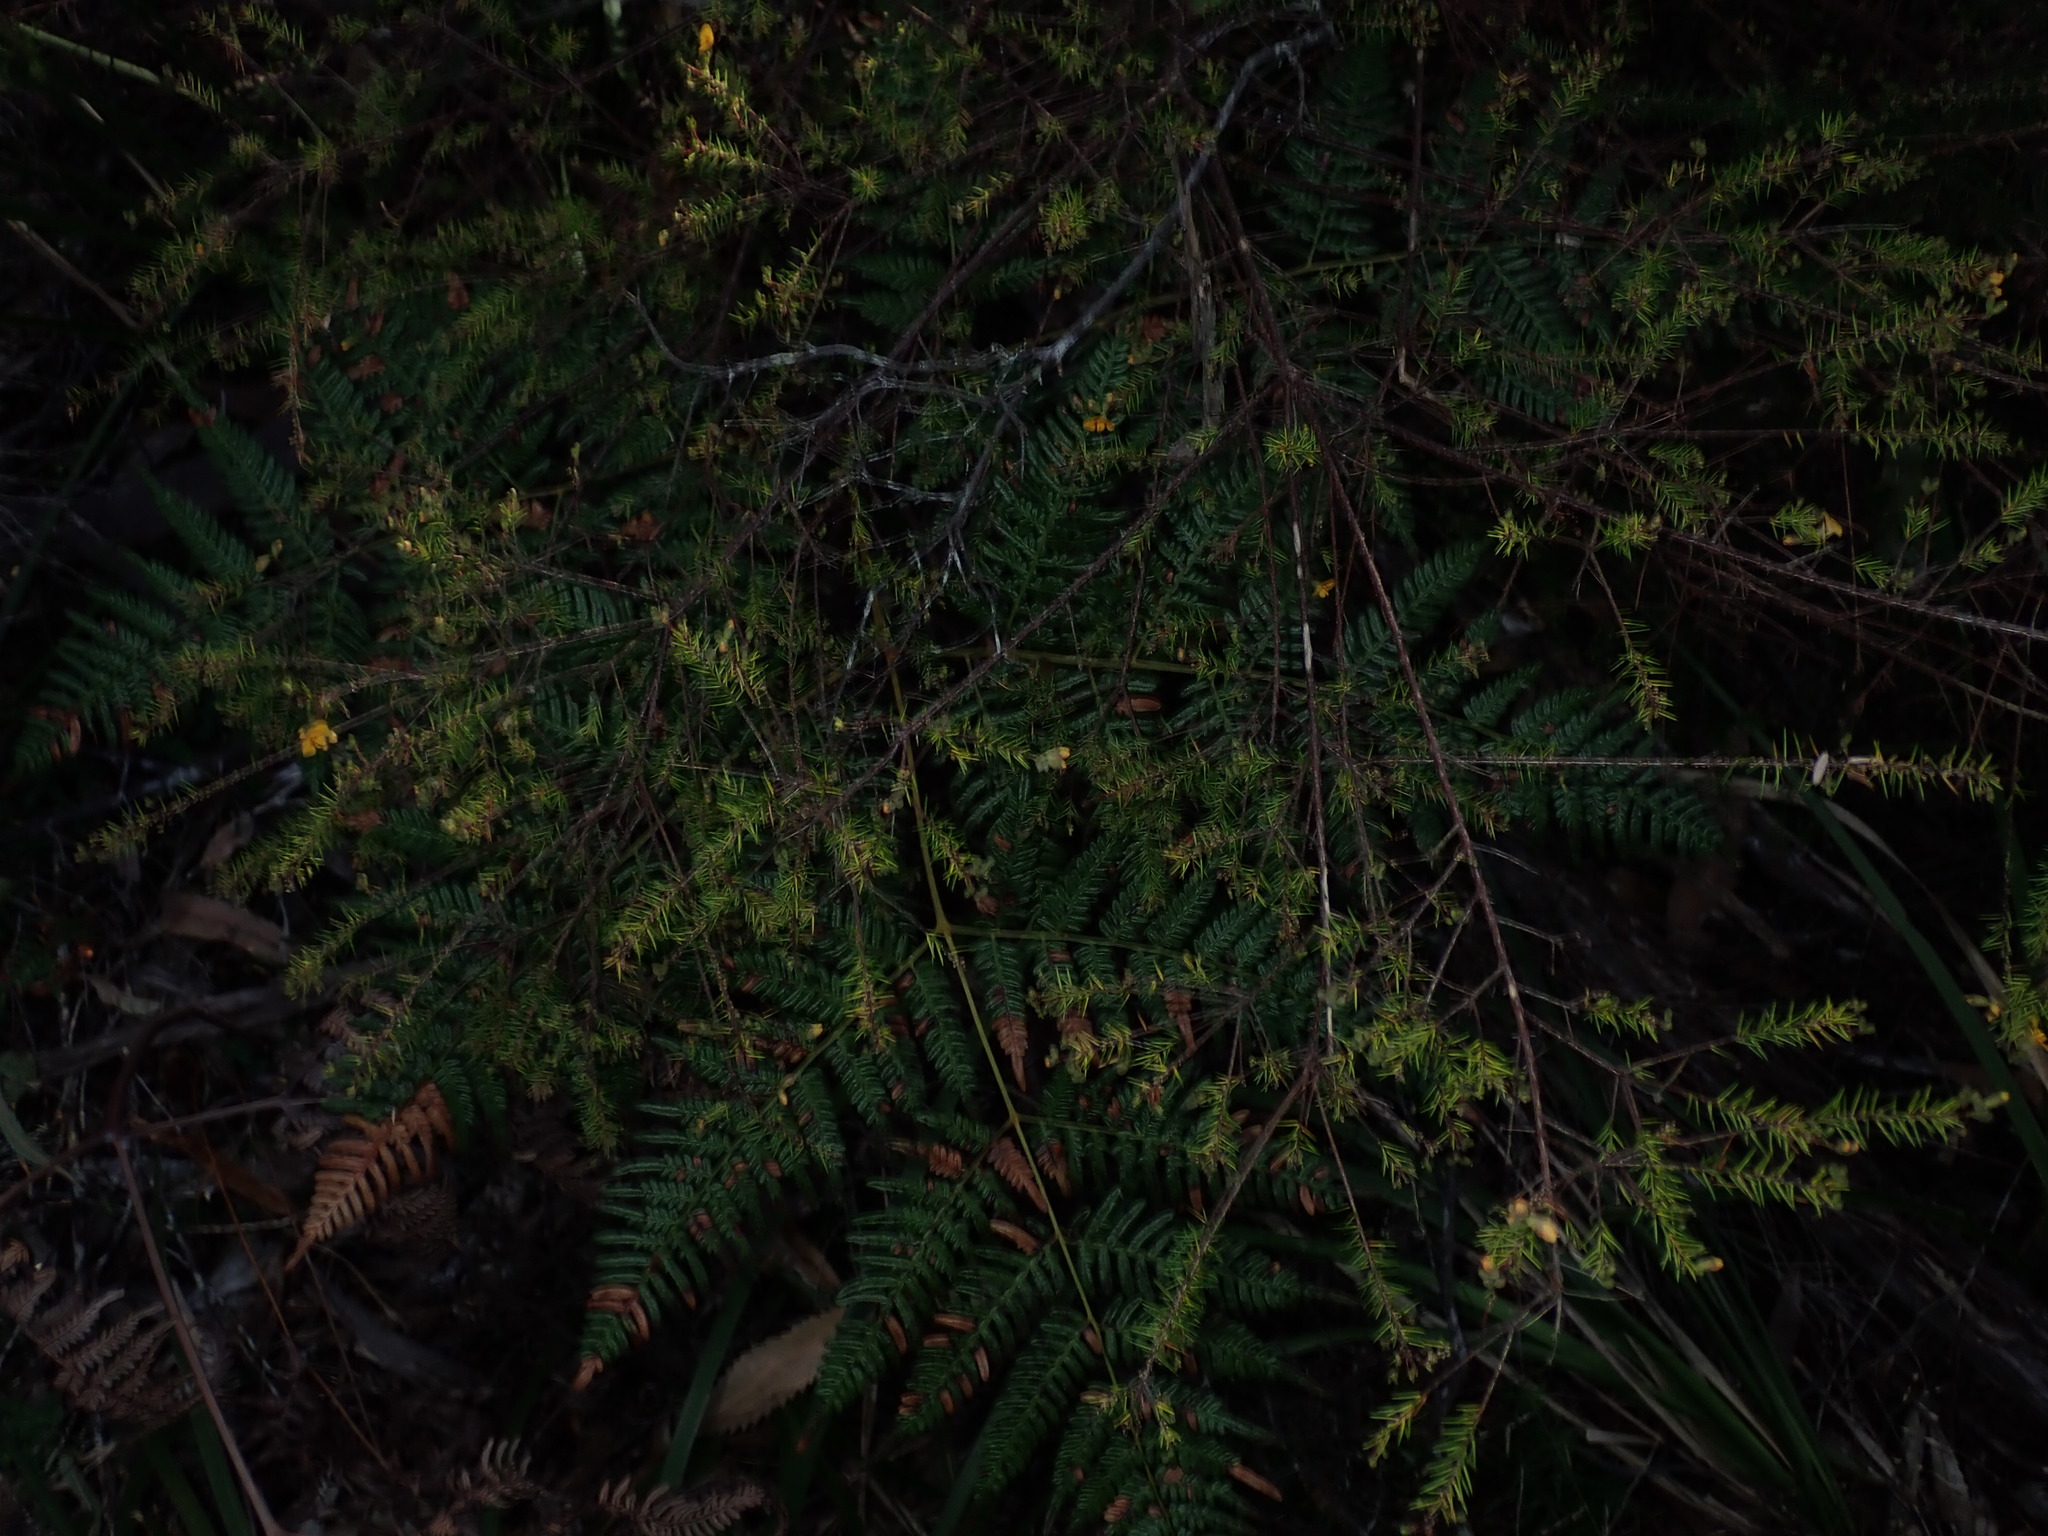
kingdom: Plantae
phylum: Tracheophyta
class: Magnoliopsida
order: Fabales
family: Fabaceae
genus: Dillwynia
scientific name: Dillwynia sieberi
